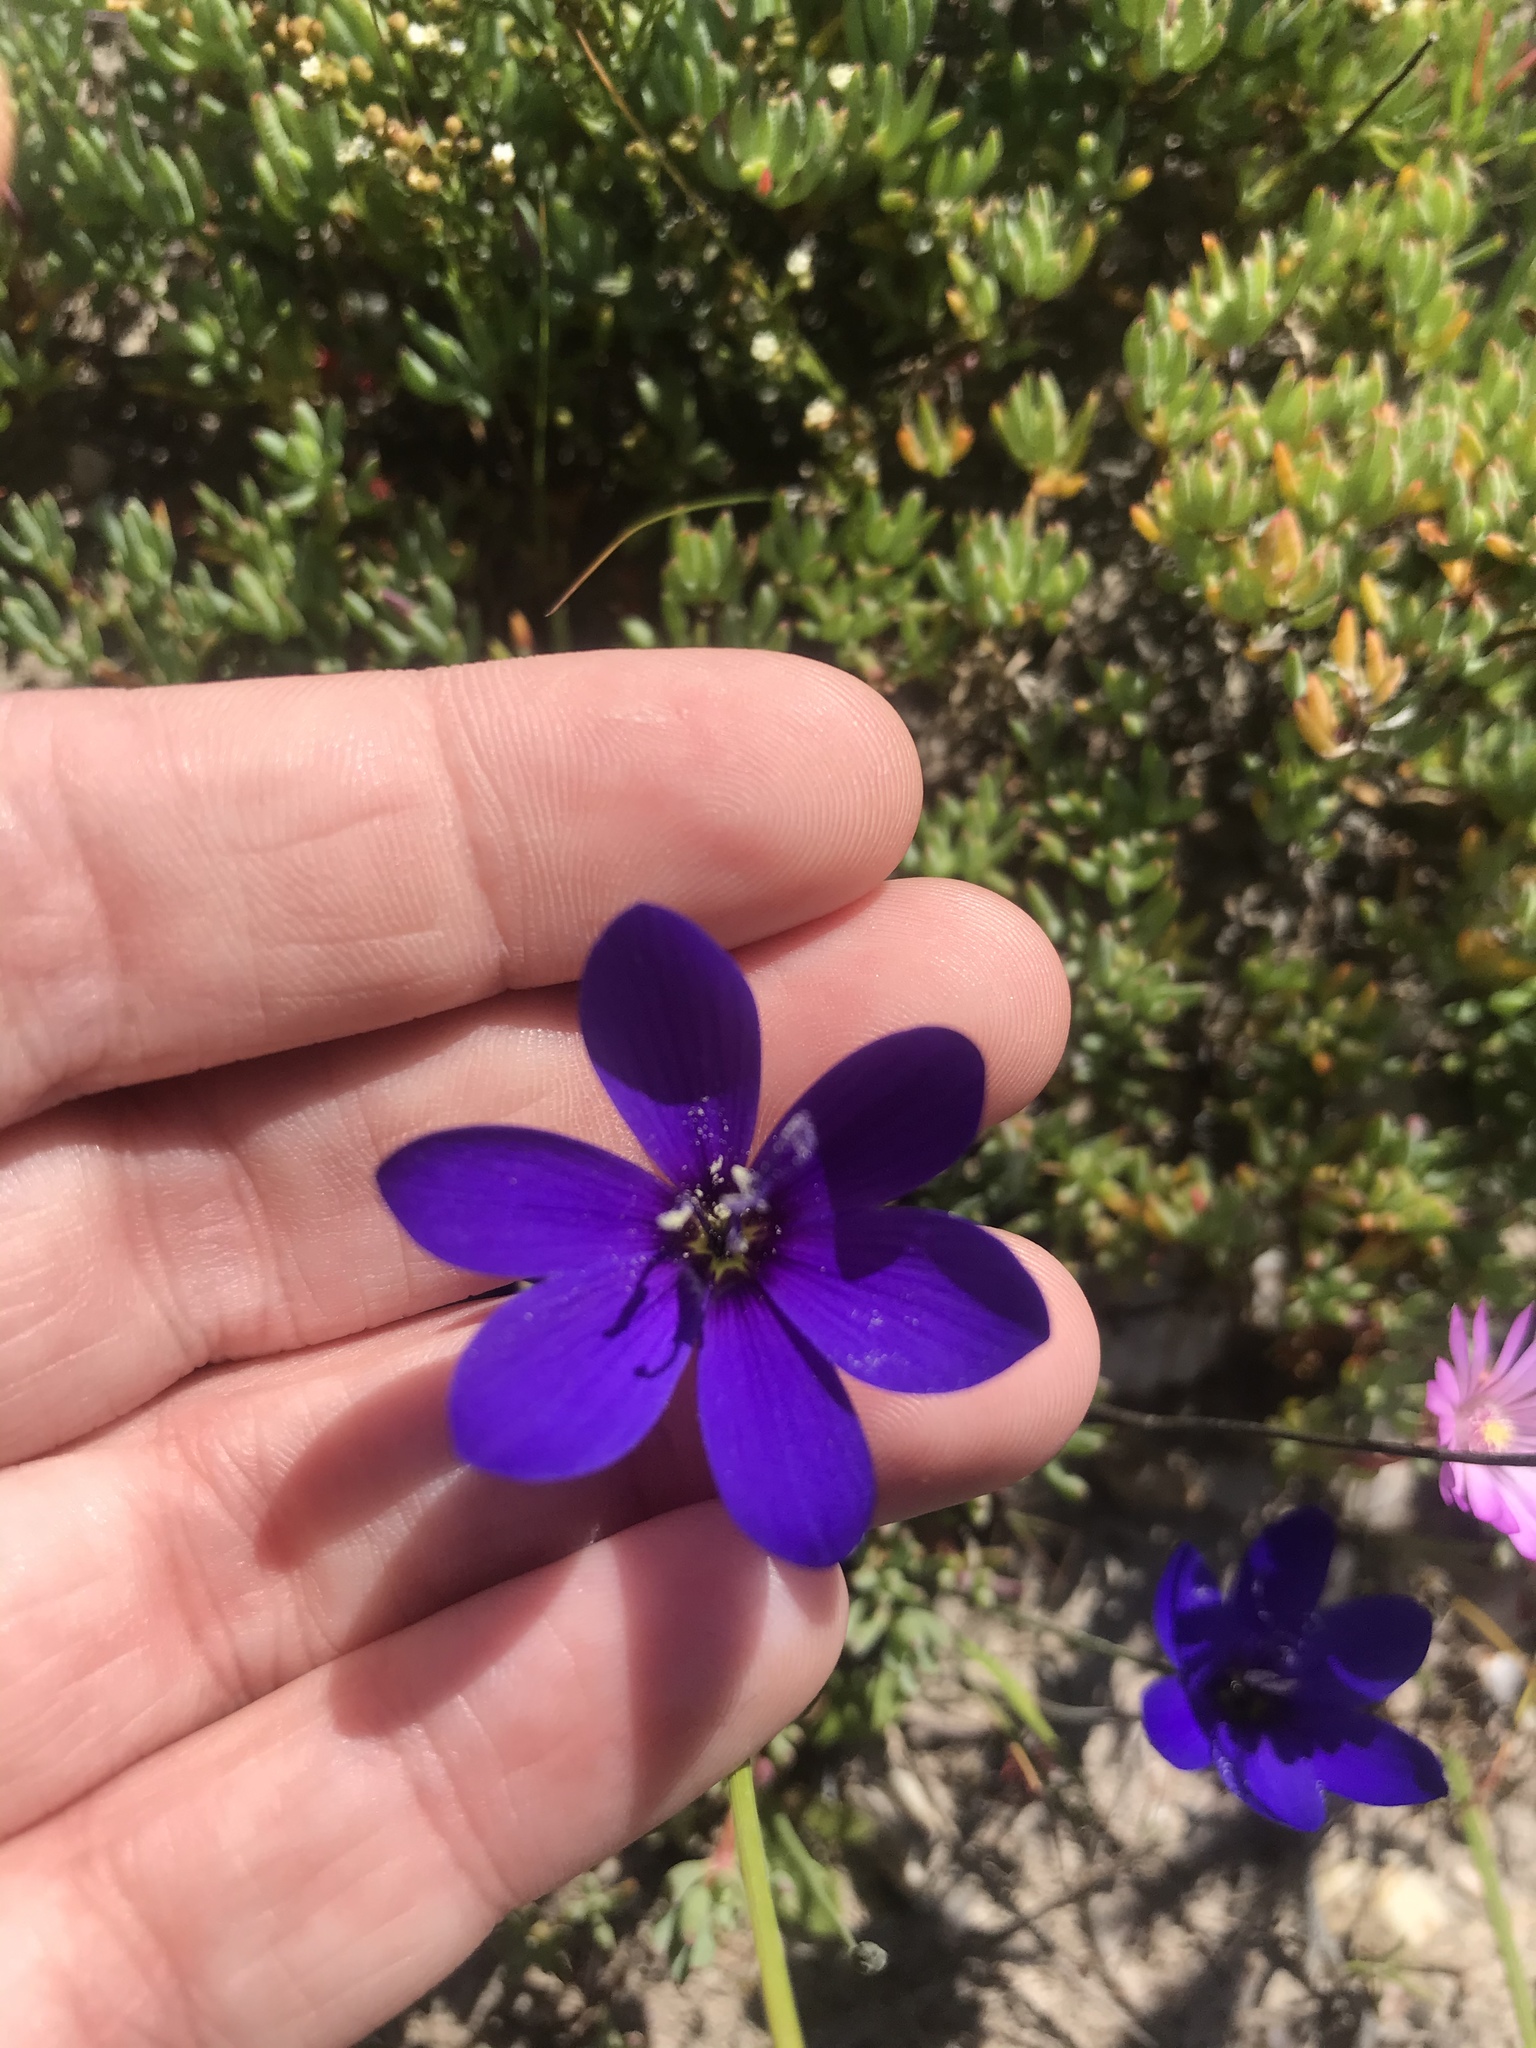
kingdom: Plantae
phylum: Tracheophyta
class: Liliopsida
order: Asparagales
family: Iridaceae
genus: Geissorhiza
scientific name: Geissorhiza aspera
